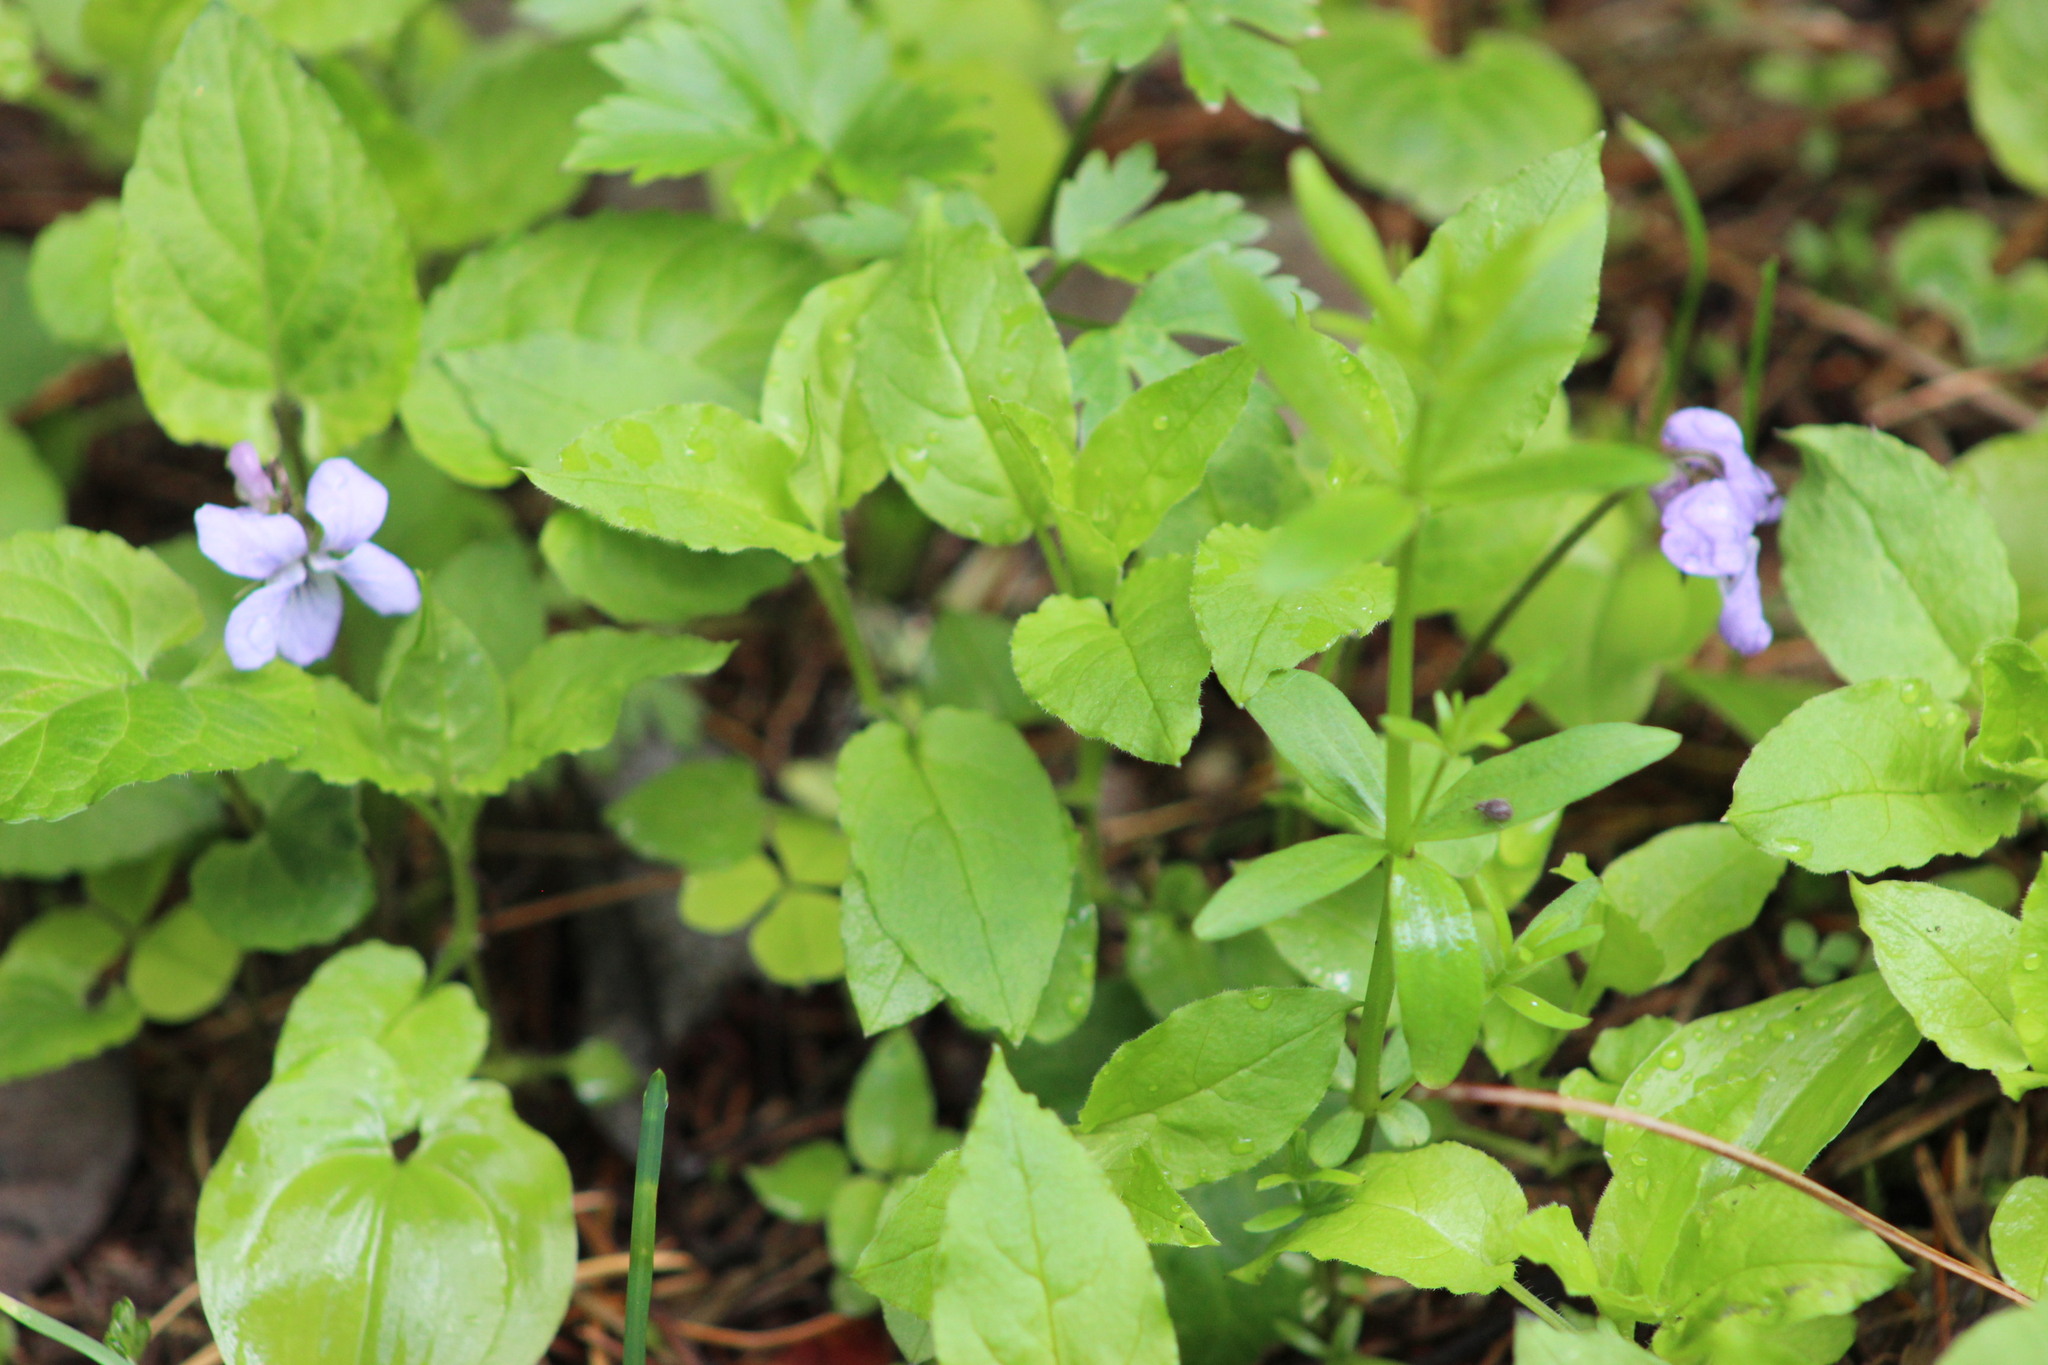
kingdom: Plantae
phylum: Tracheophyta
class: Magnoliopsida
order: Malpighiales
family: Violaceae
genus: Viola
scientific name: Viola selkirkii
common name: Selkirk's violet
